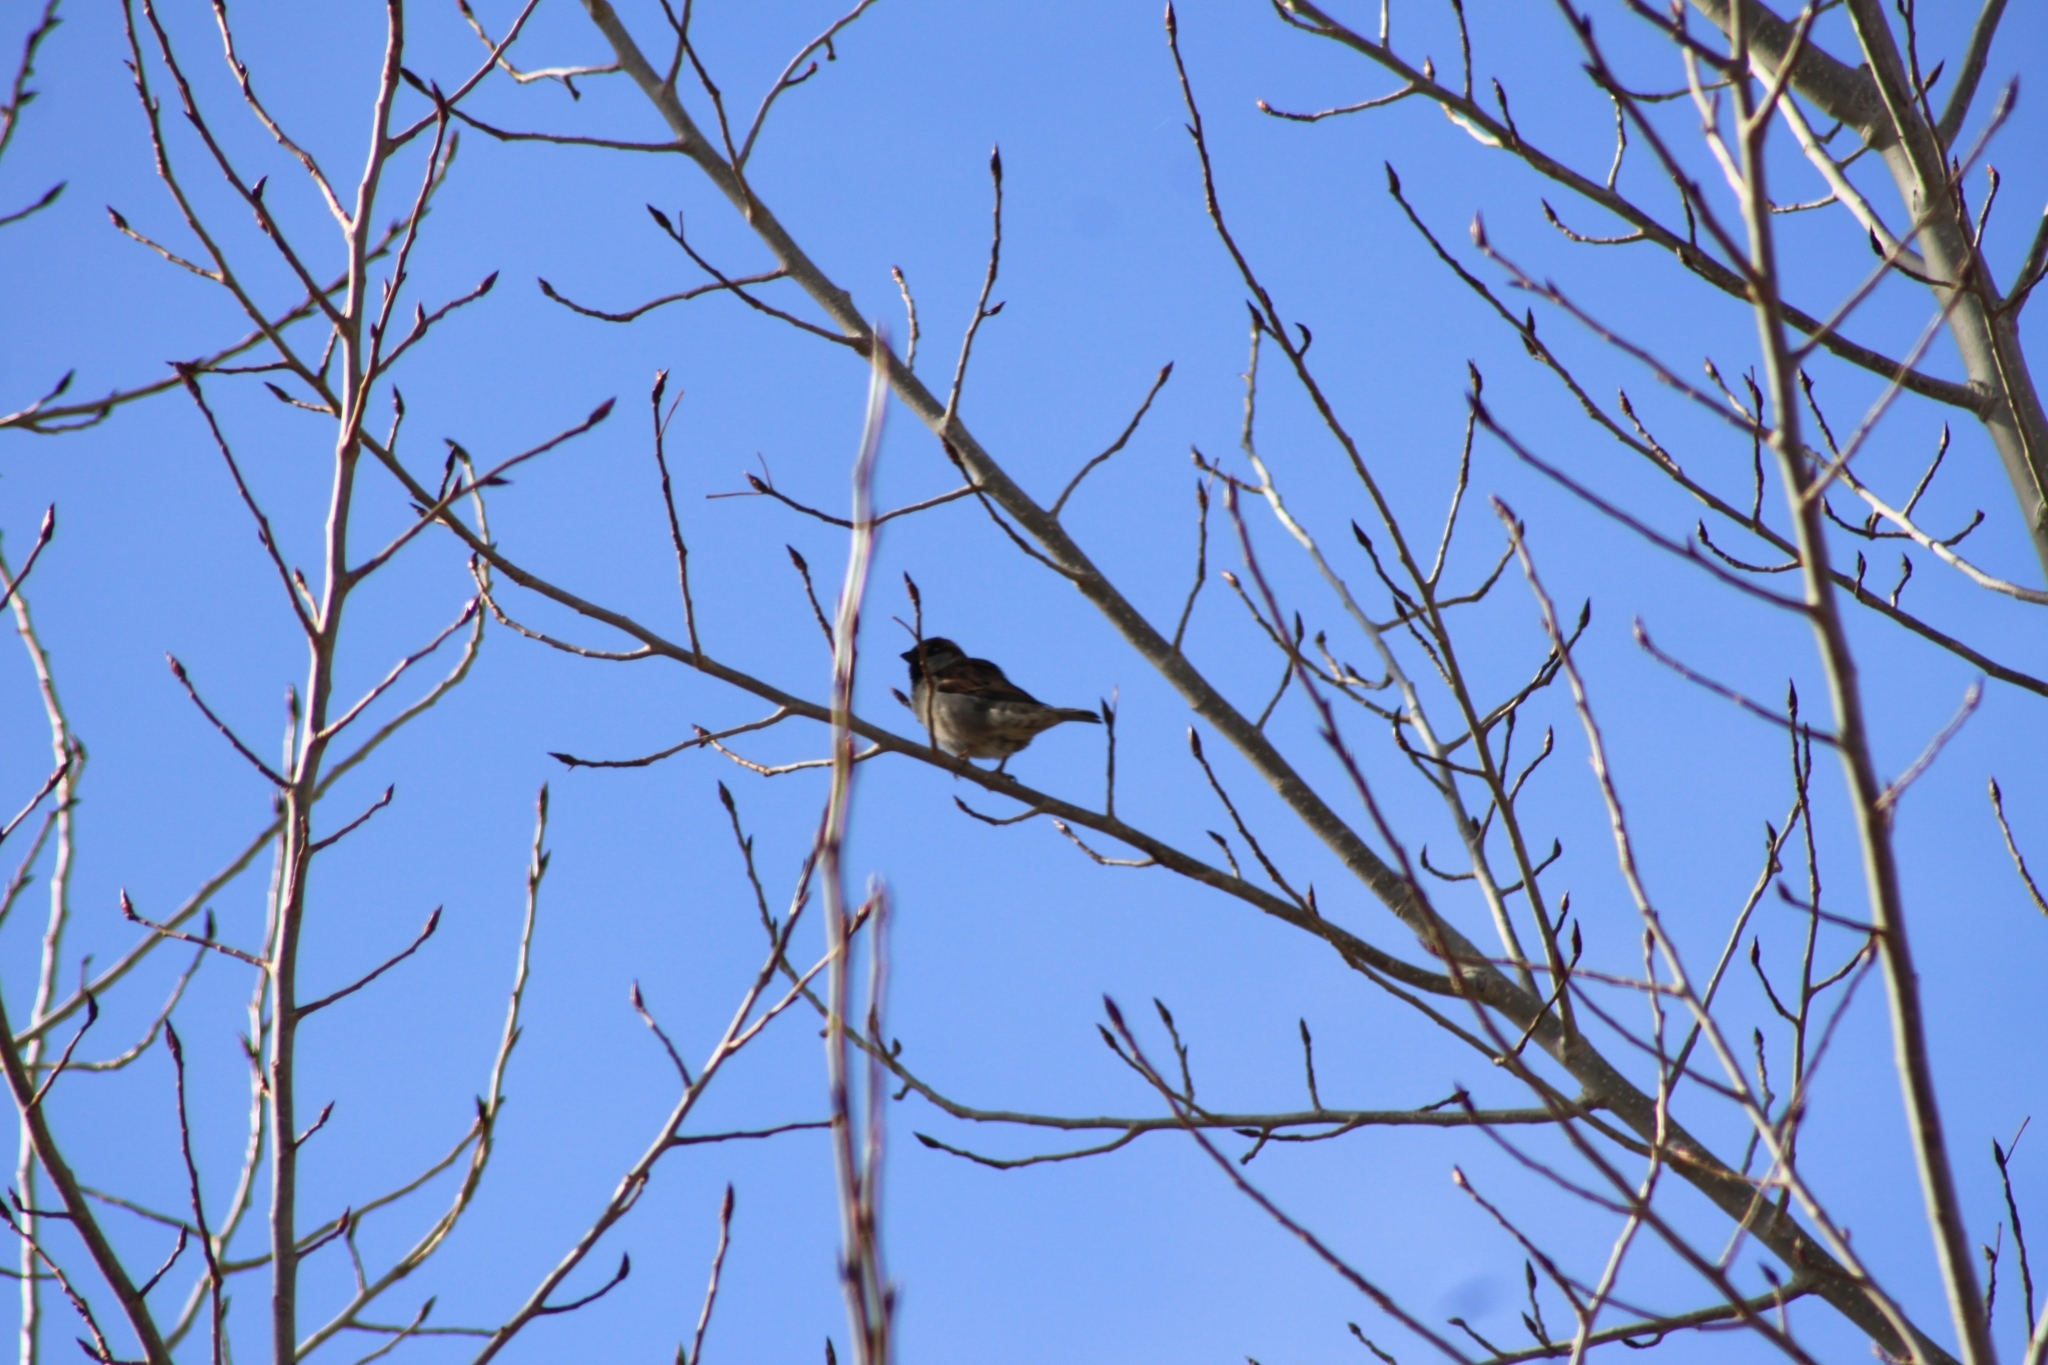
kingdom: Animalia
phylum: Chordata
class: Aves
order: Passeriformes
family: Passeridae
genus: Passer
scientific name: Passer domesticus
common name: House sparrow
